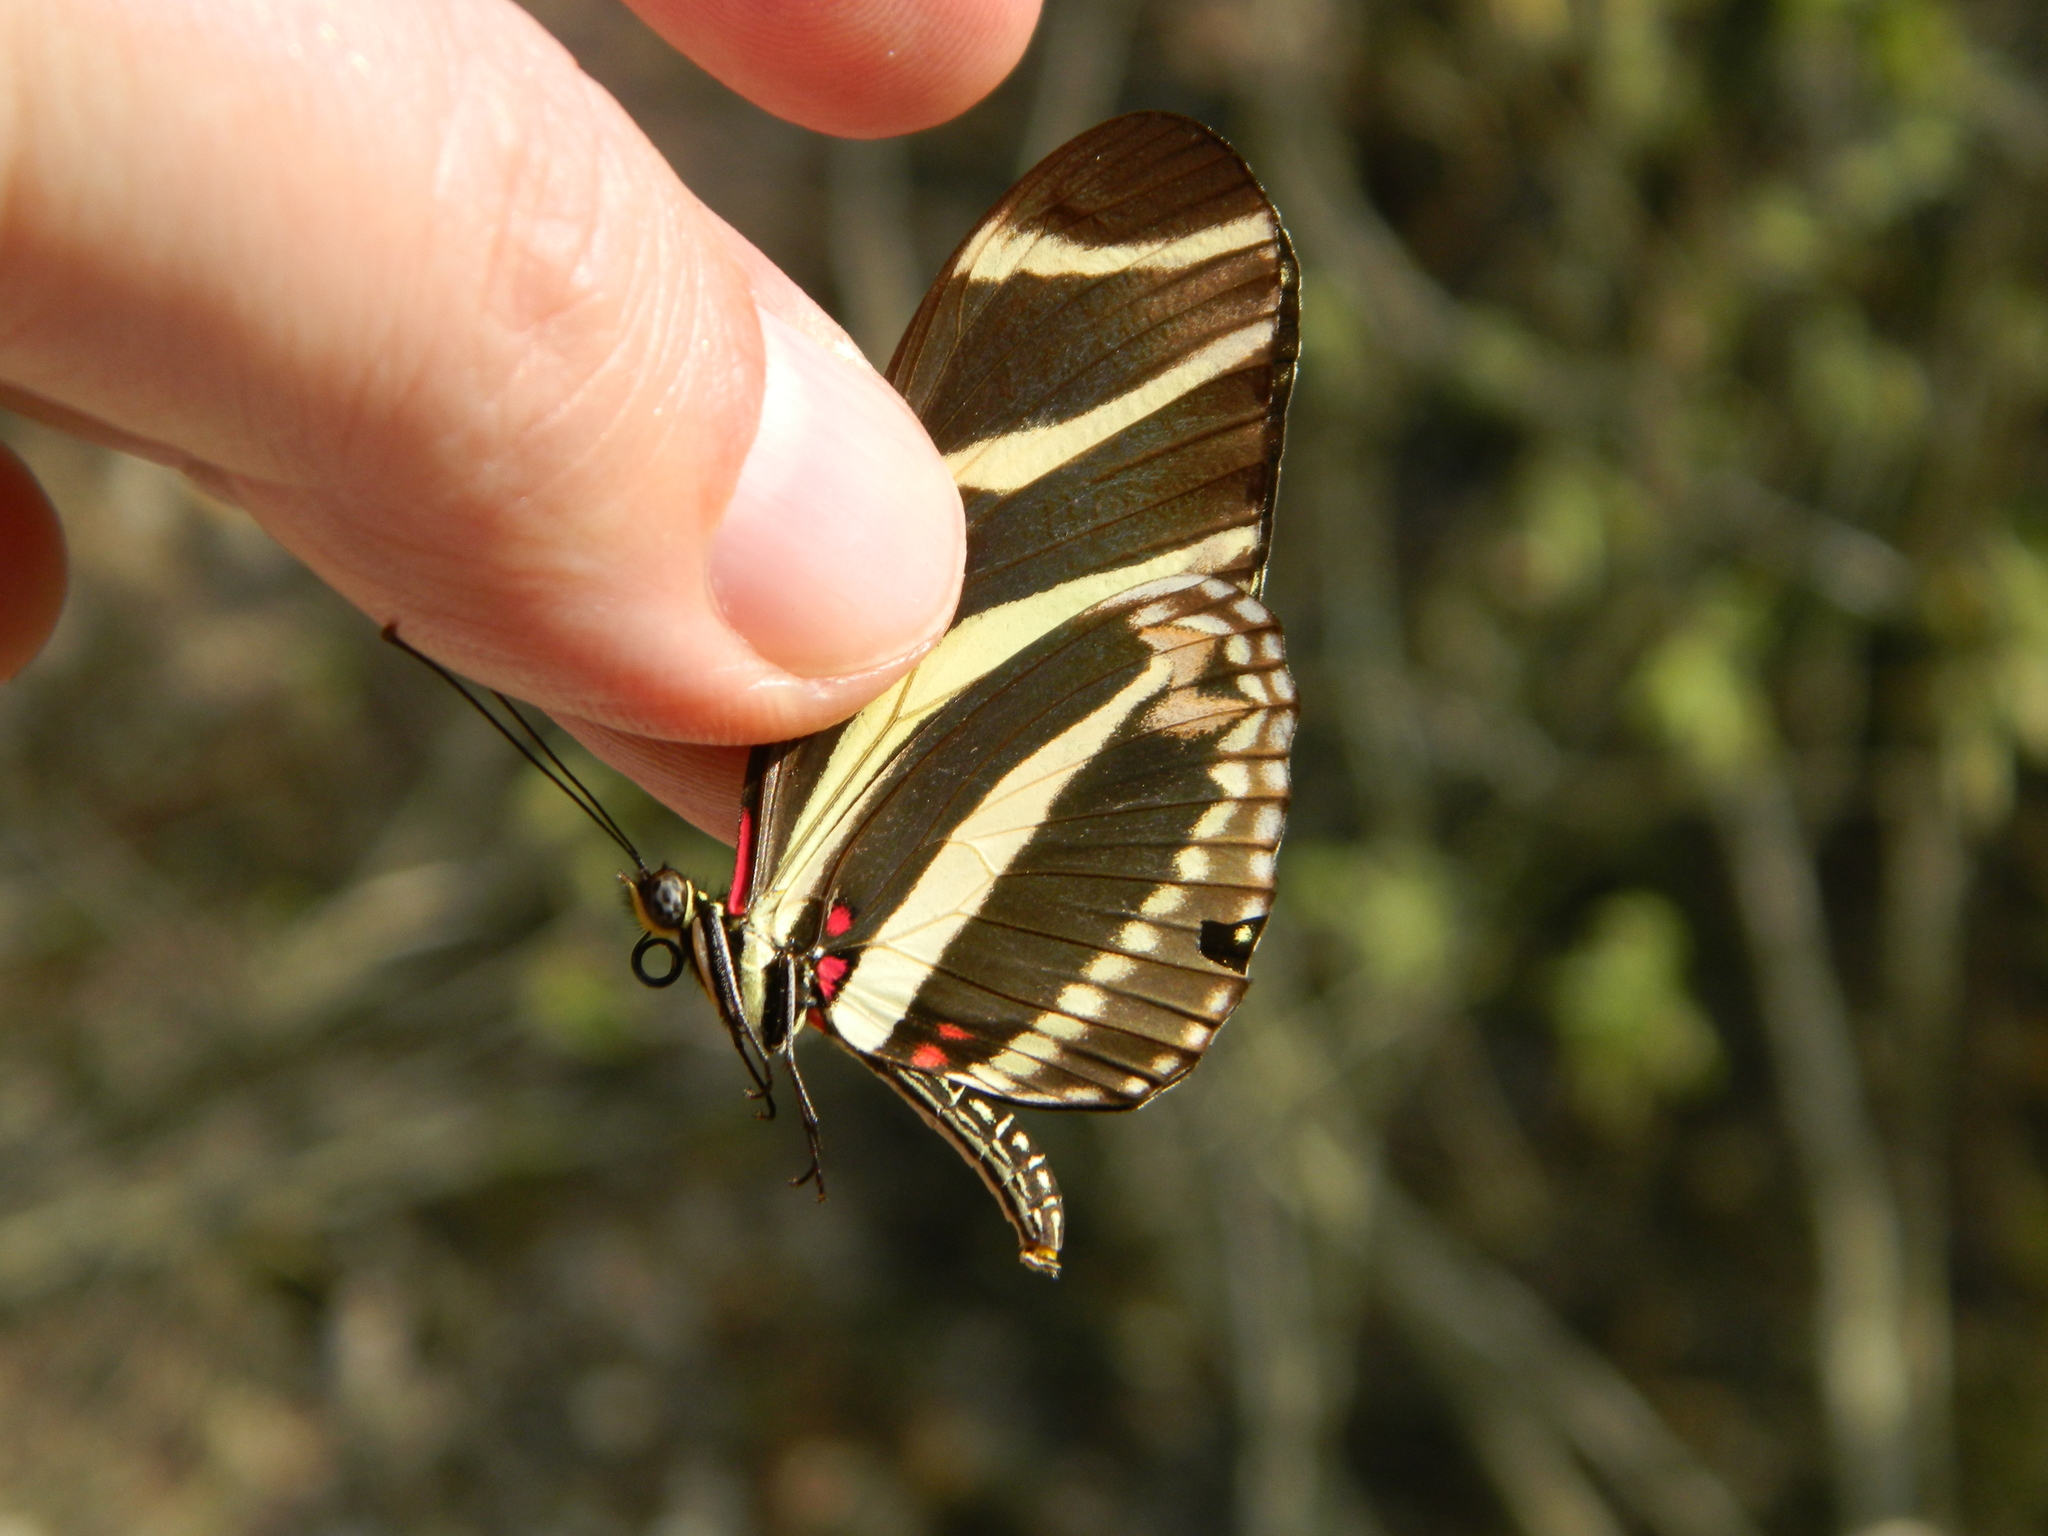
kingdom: Animalia
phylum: Arthropoda
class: Insecta
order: Lepidoptera
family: Nymphalidae
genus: Heliconius
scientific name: Heliconius charithonia
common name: Zebra long wing
